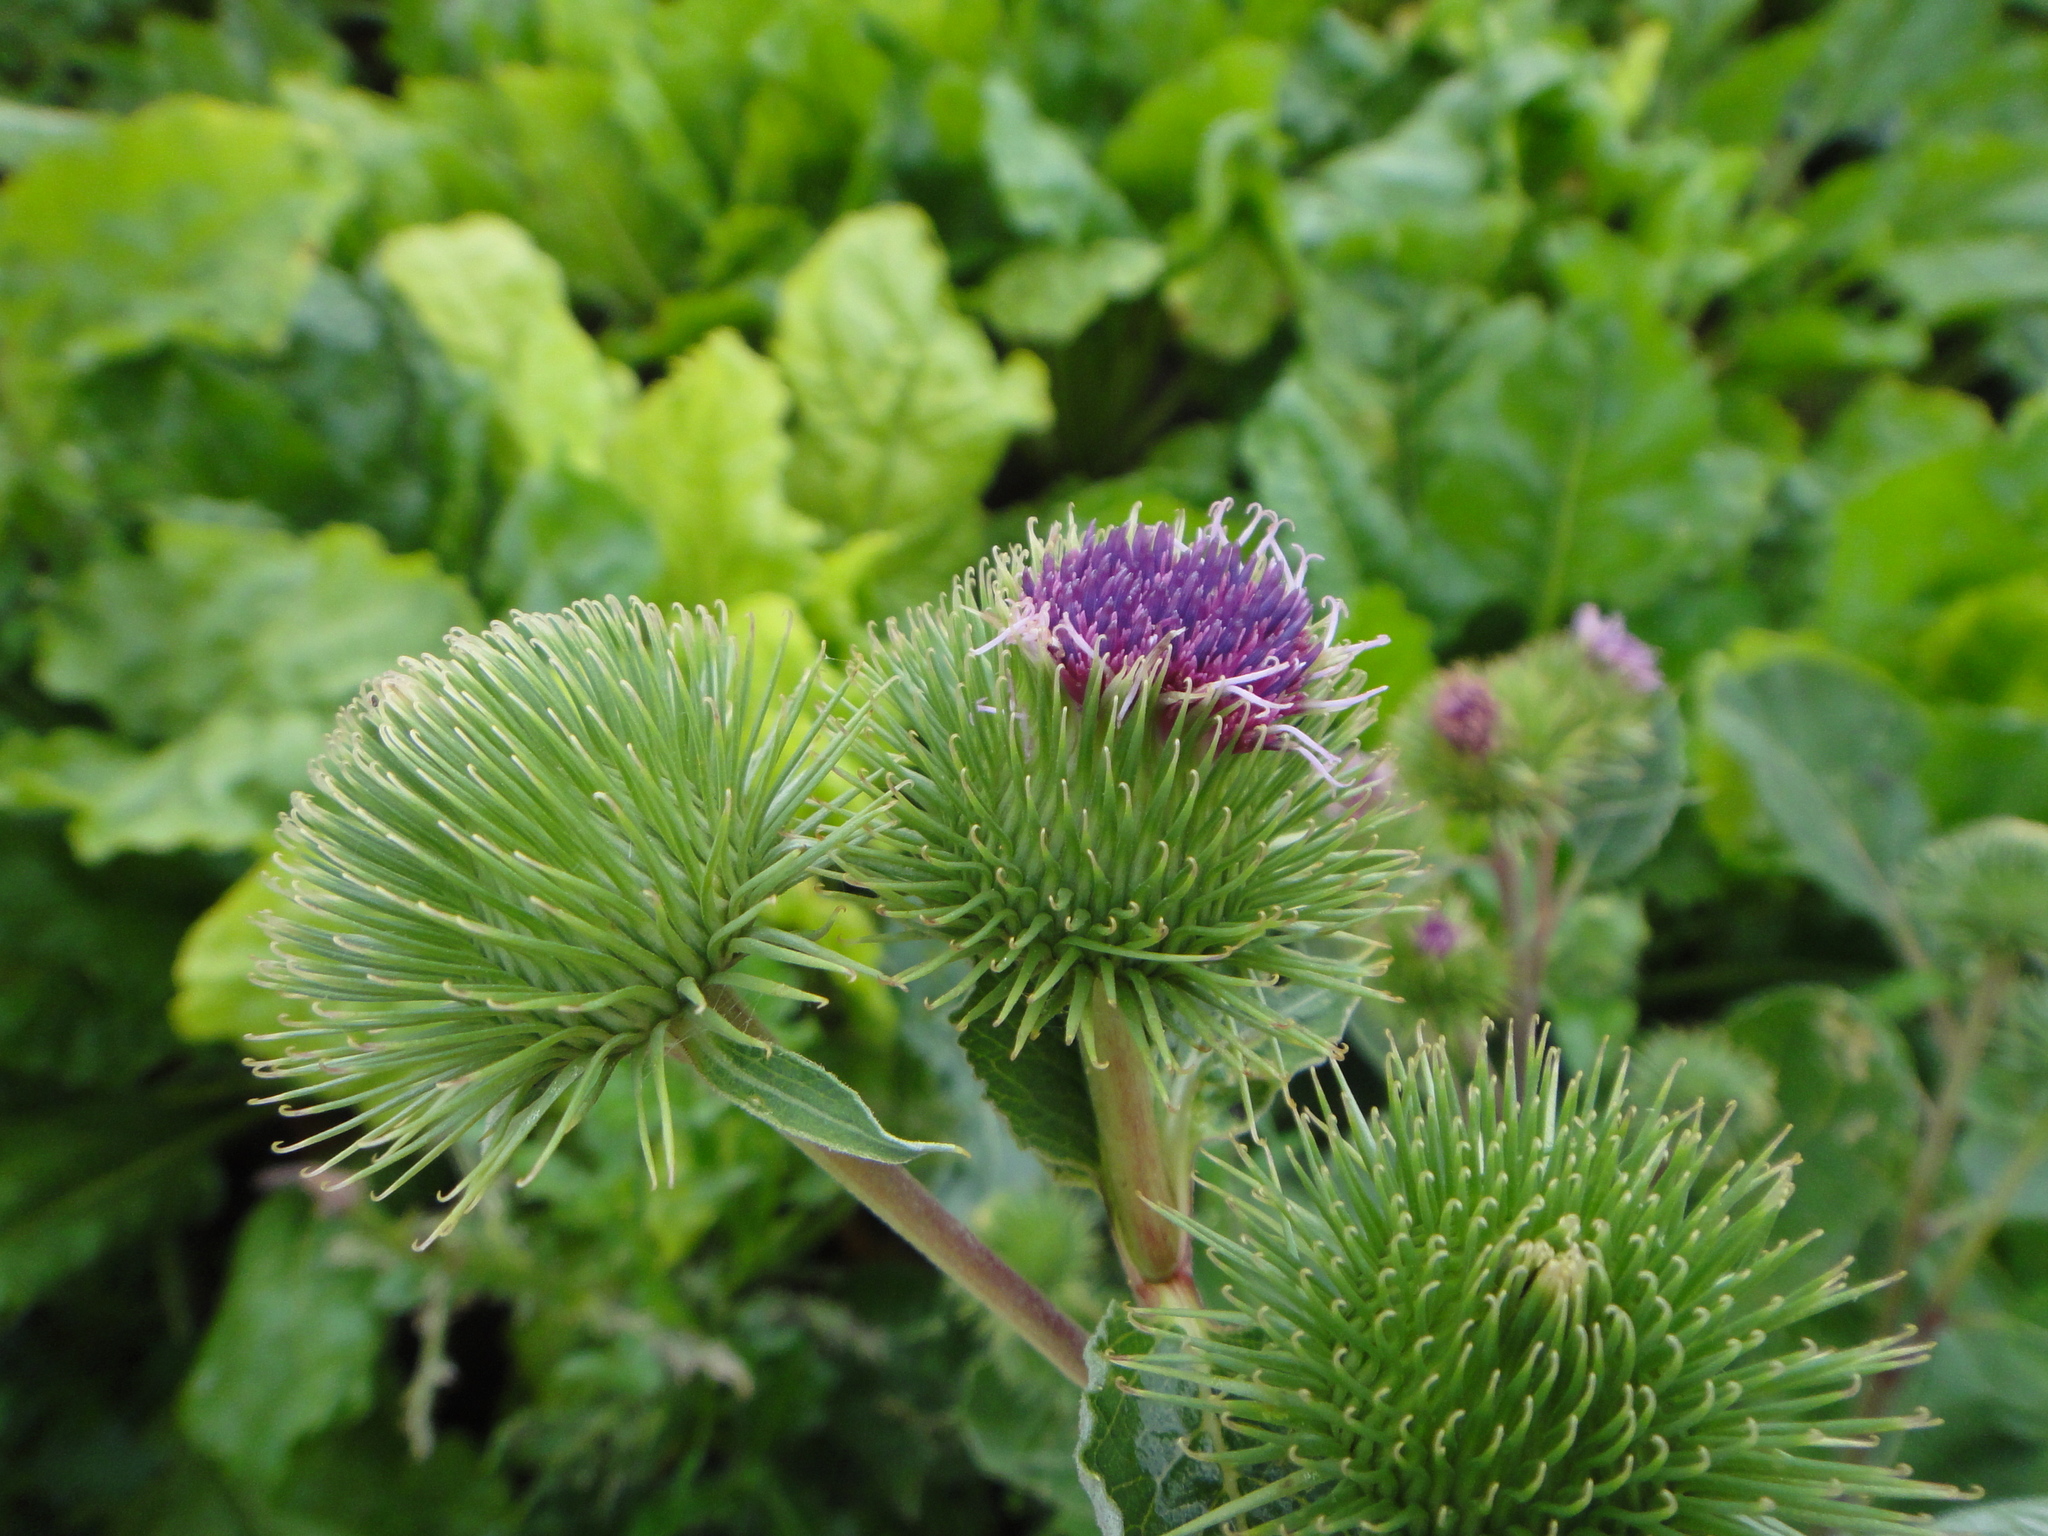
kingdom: Plantae
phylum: Tracheophyta
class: Magnoliopsida
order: Asterales
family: Asteraceae
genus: Arctium
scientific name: Arctium lappa
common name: Greater burdock
